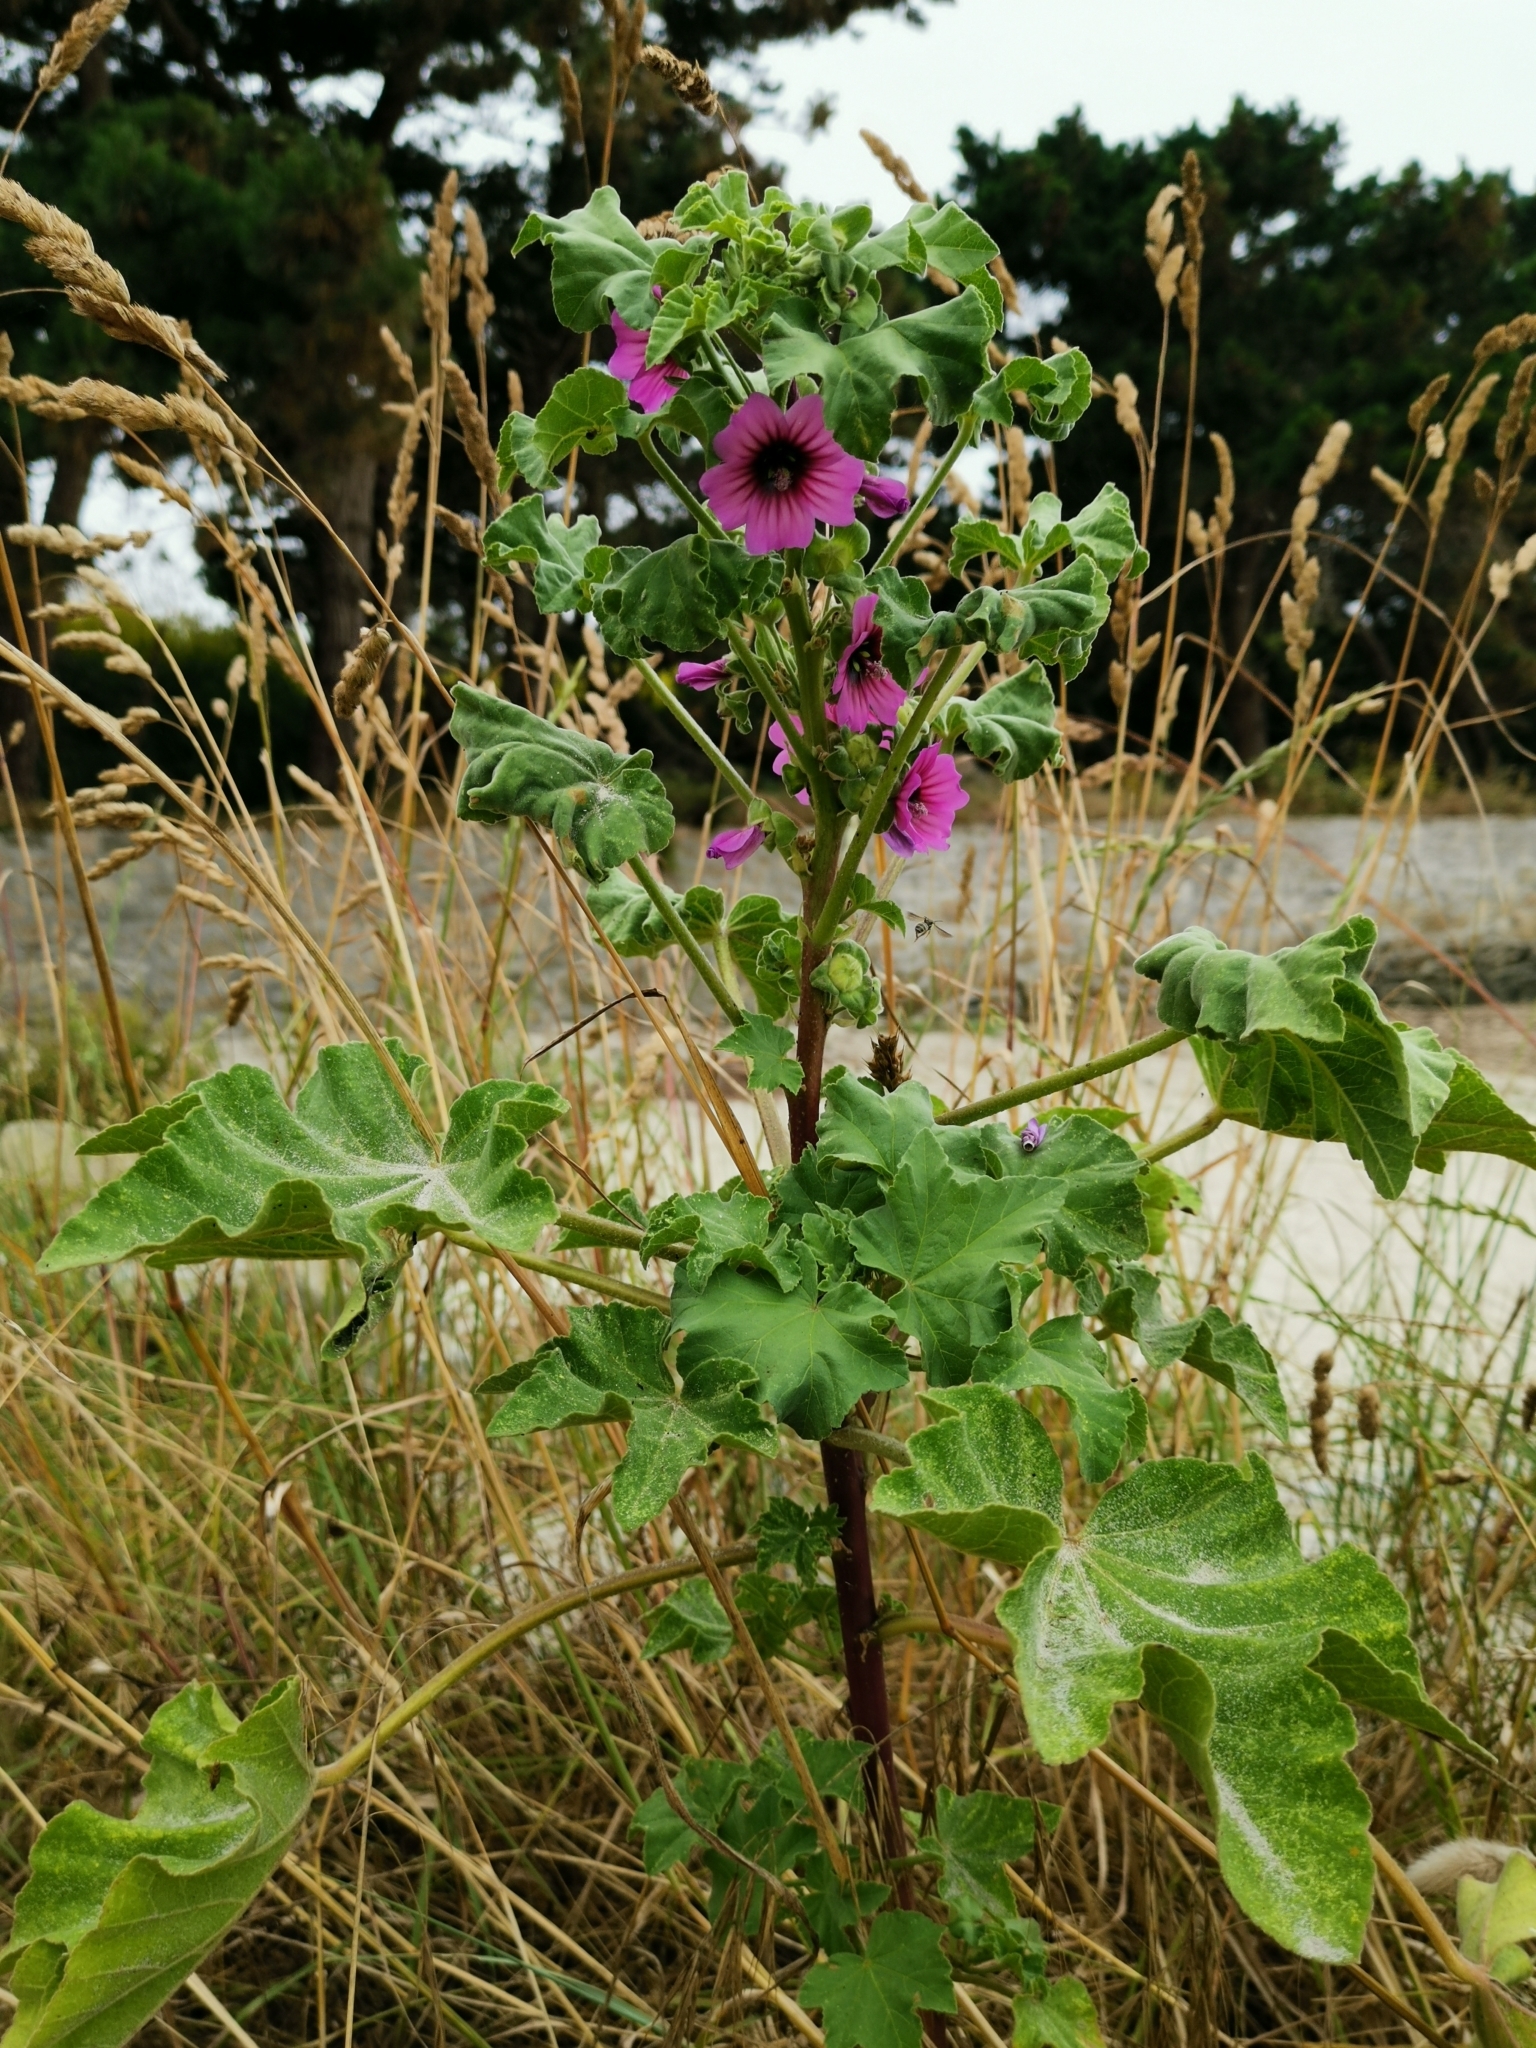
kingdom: Plantae
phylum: Tracheophyta
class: Magnoliopsida
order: Malvales
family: Malvaceae
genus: Malva
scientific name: Malva arborea
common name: Tree mallow
